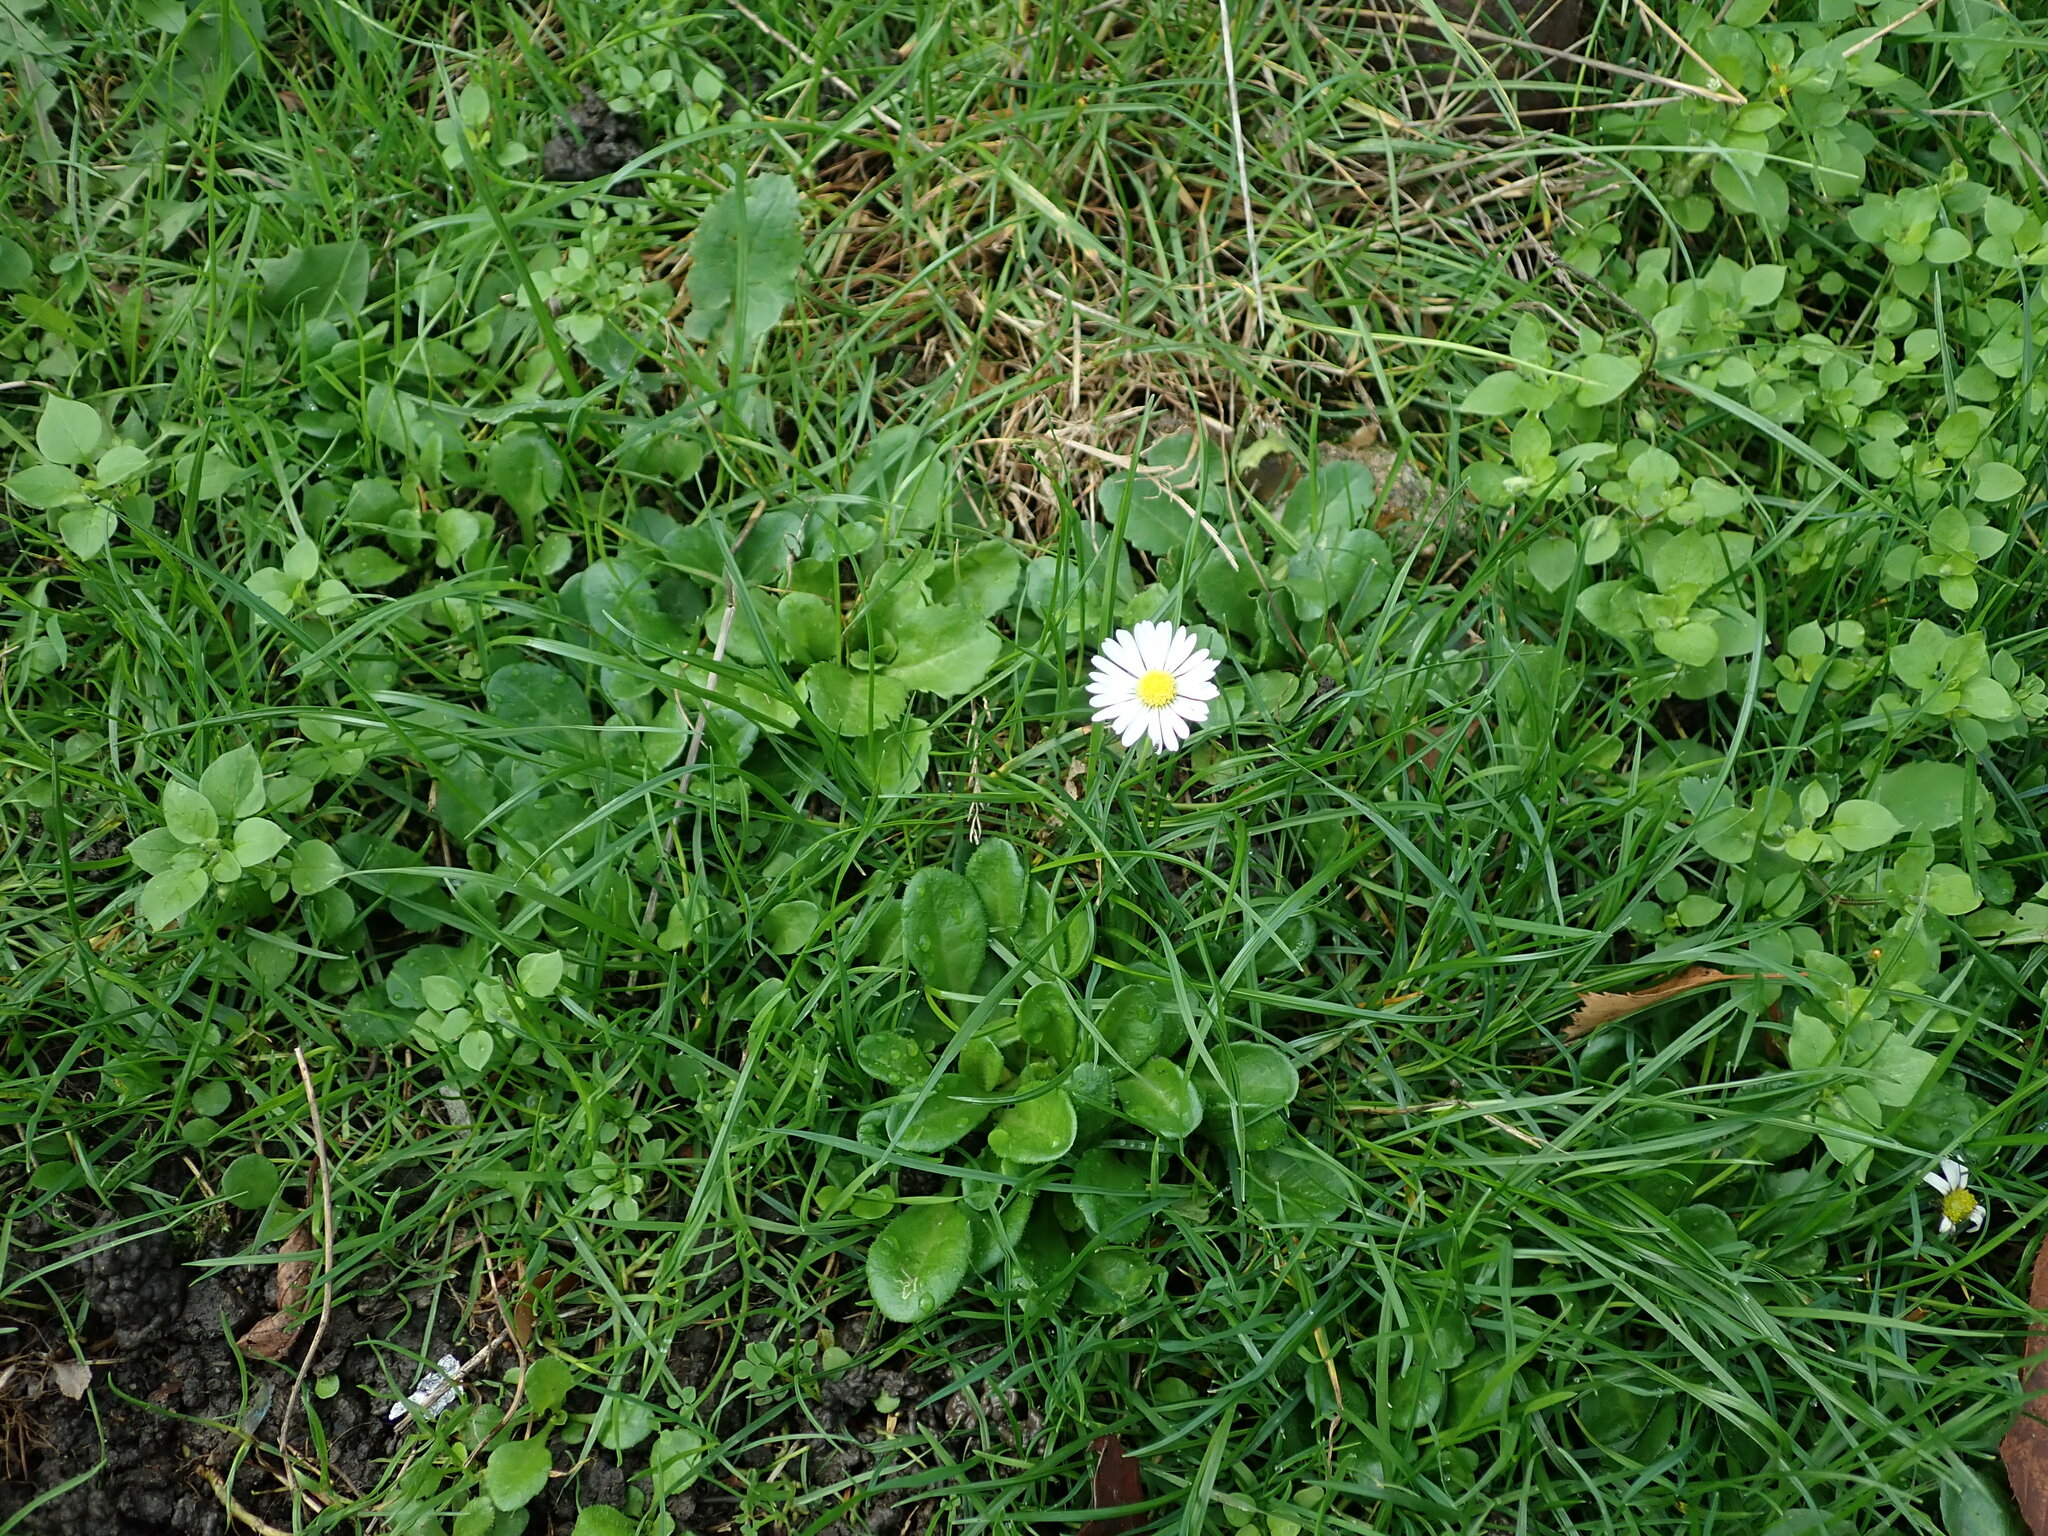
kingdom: Plantae
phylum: Tracheophyta
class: Magnoliopsida
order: Asterales
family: Asteraceae
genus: Bellis
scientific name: Bellis perennis
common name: Lawndaisy
